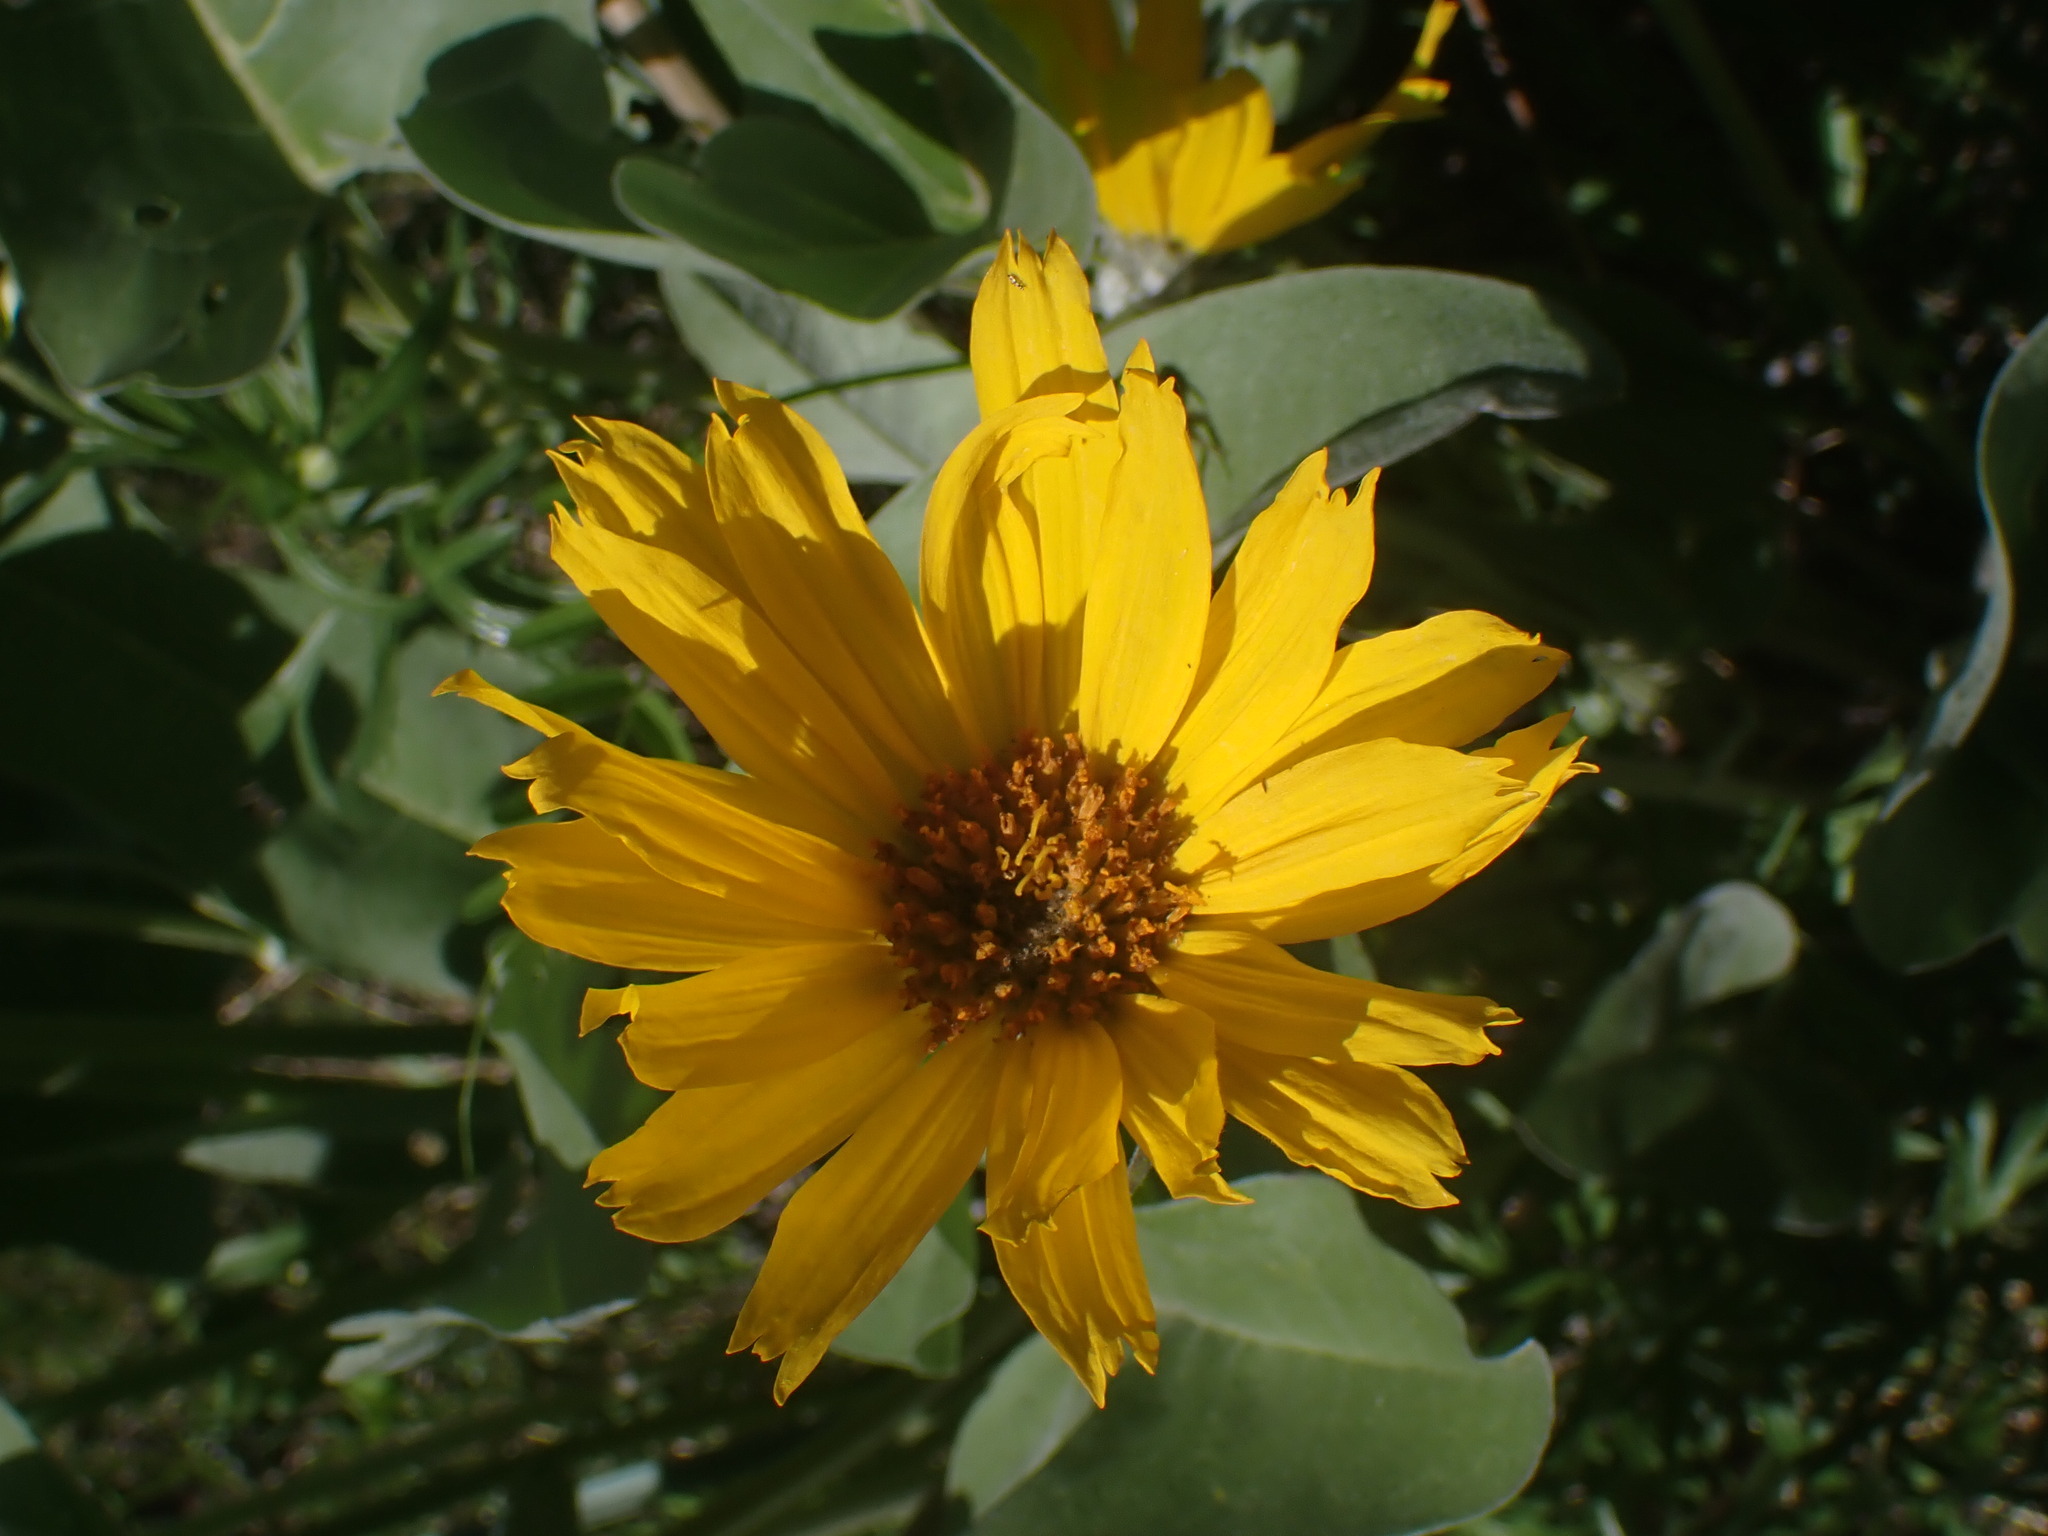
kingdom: Plantae
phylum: Tracheophyta
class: Magnoliopsida
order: Asterales
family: Asteraceae
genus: Wyethia
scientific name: Wyethia sagittata
